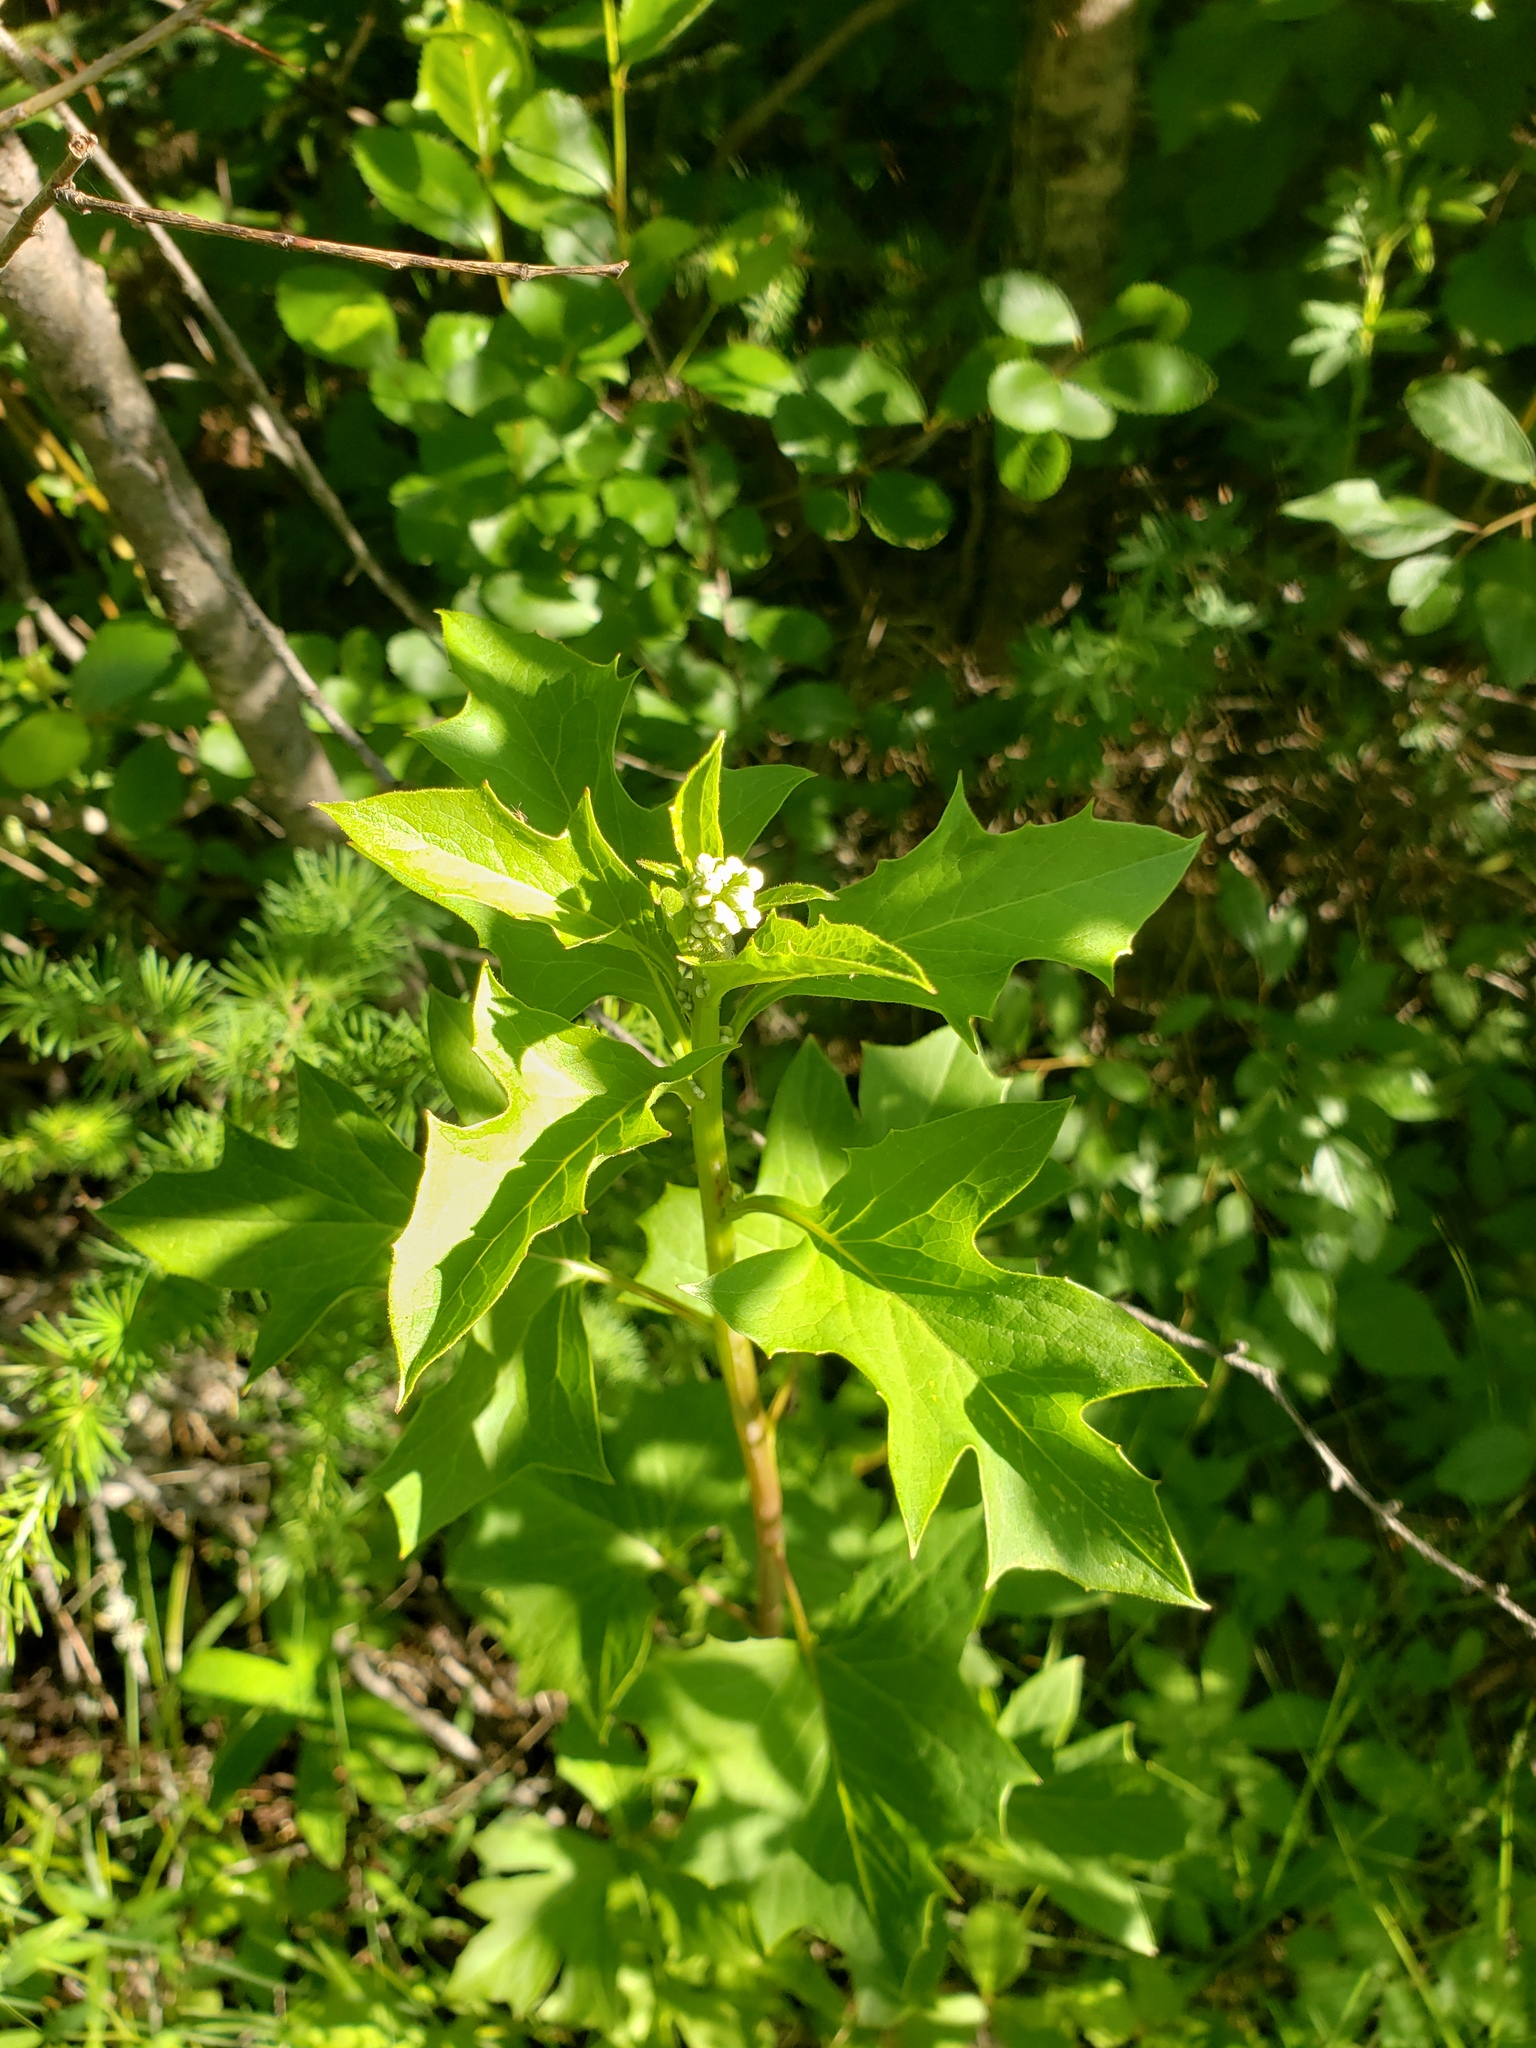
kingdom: Plantae
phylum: Tracheophyta
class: Magnoliopsida
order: Asterales
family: Asteraceae
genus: Nabalus
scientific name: Nabalus albus
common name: White rattlesnakeroot
